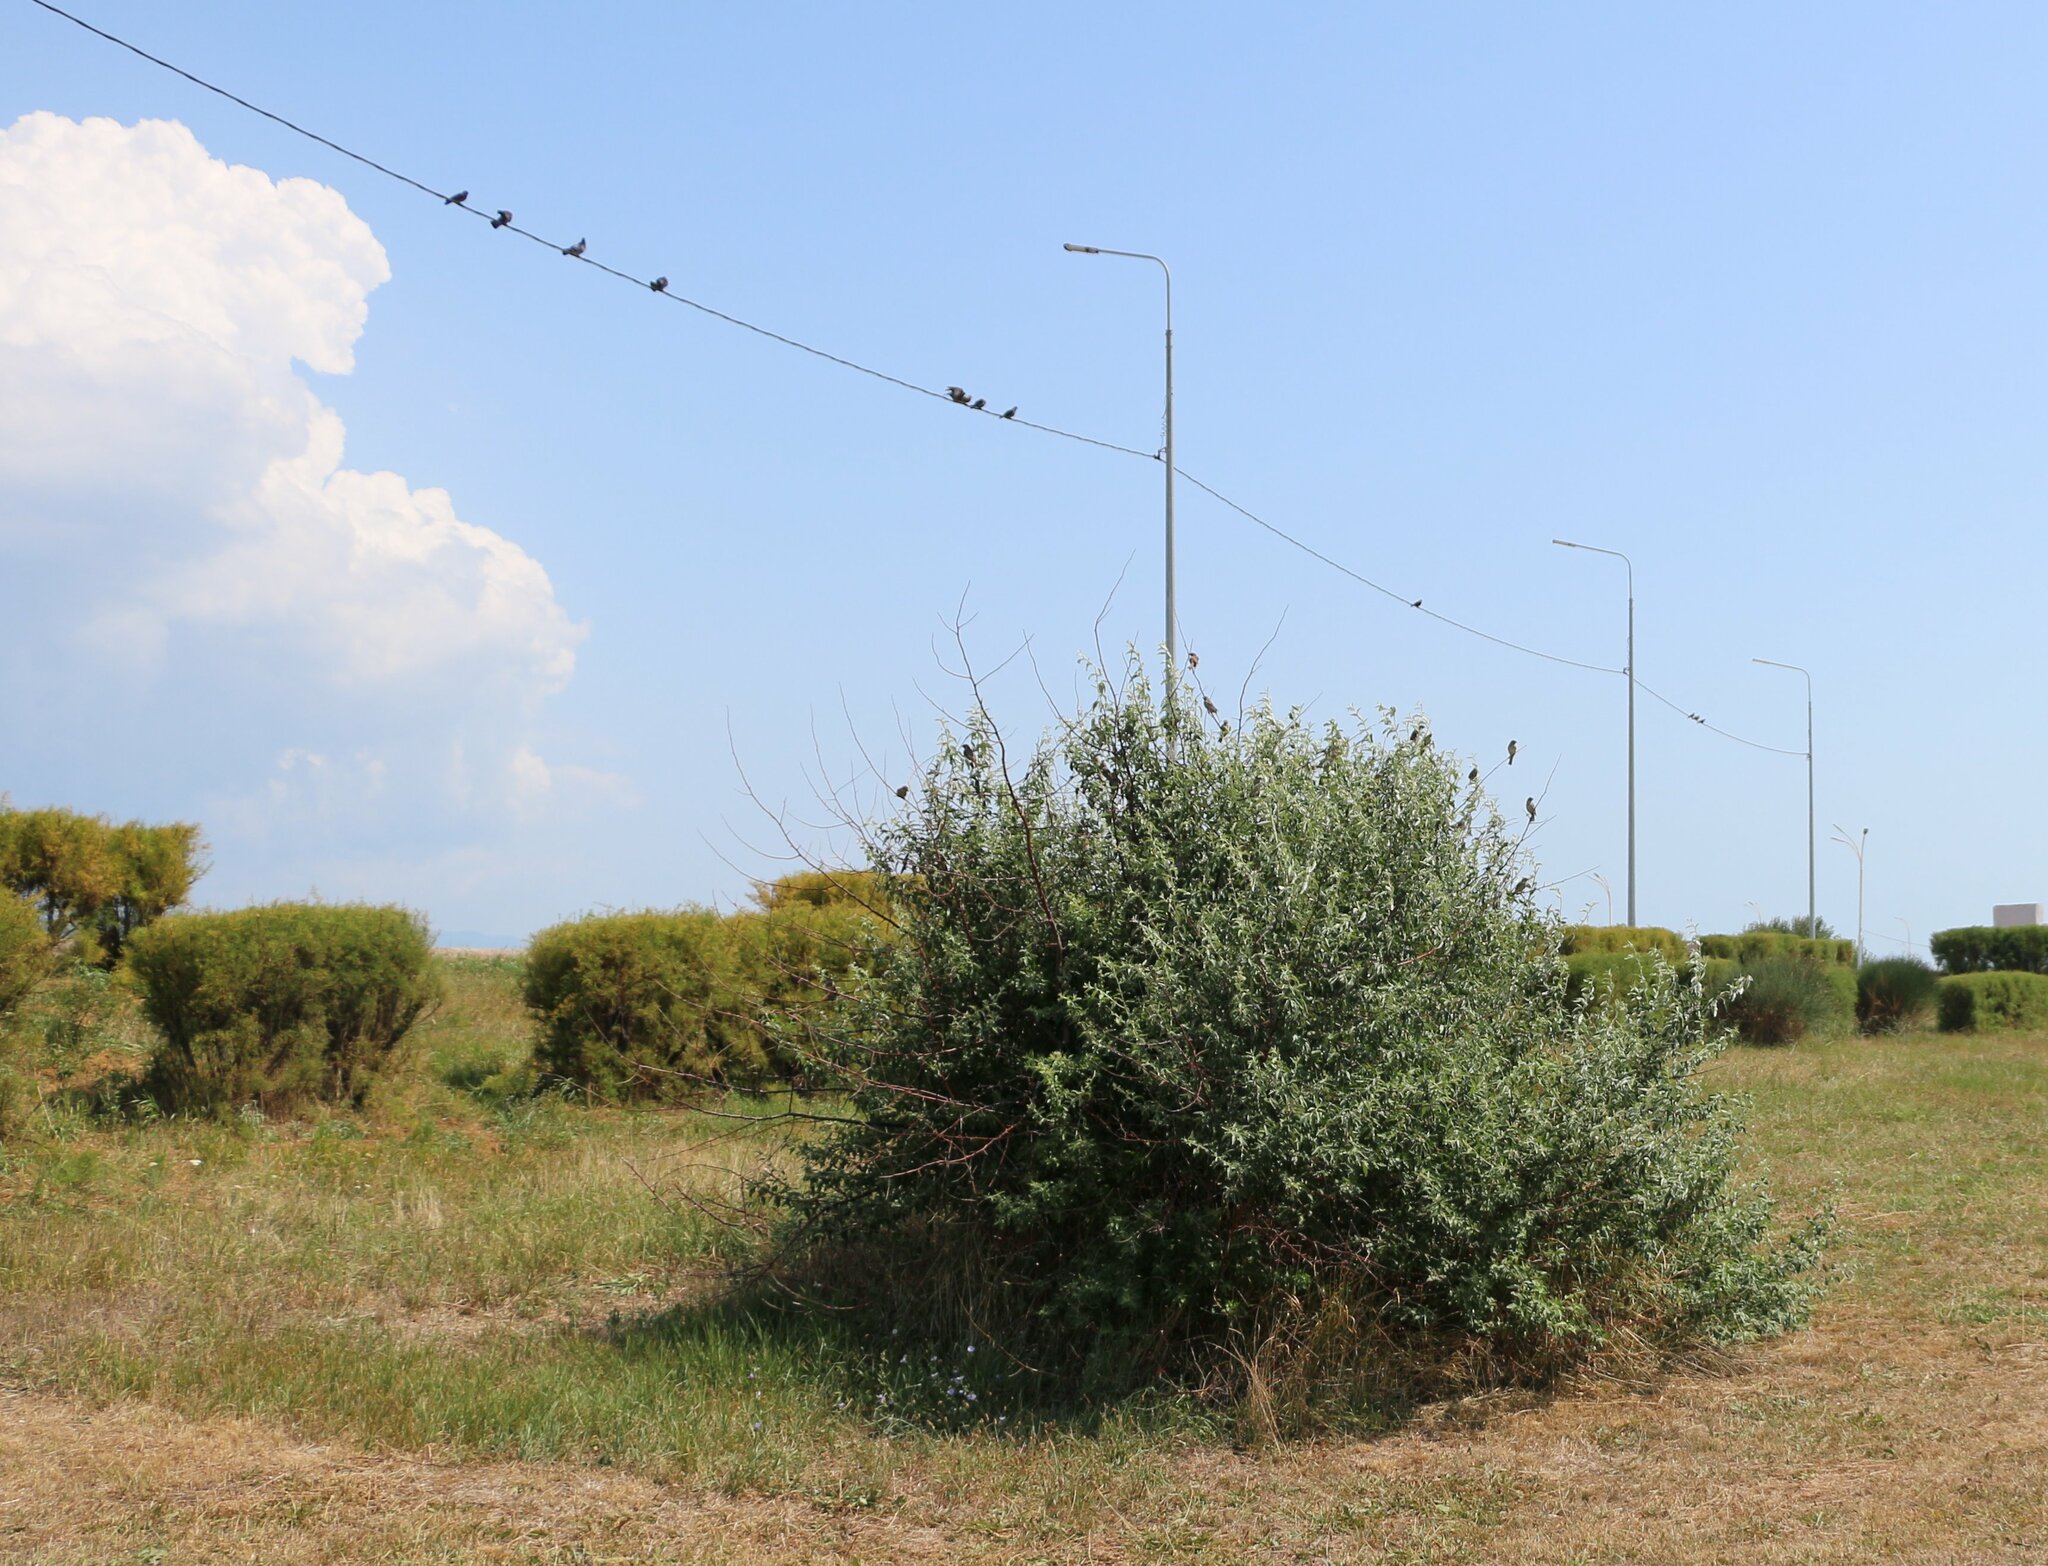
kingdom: Plantae
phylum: Tracheophyta
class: Magnoliopsida
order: Rosales
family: Elaeagnaceae
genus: Elaeagnus
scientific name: Elaeagnus angustifolia
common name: Russian olive
